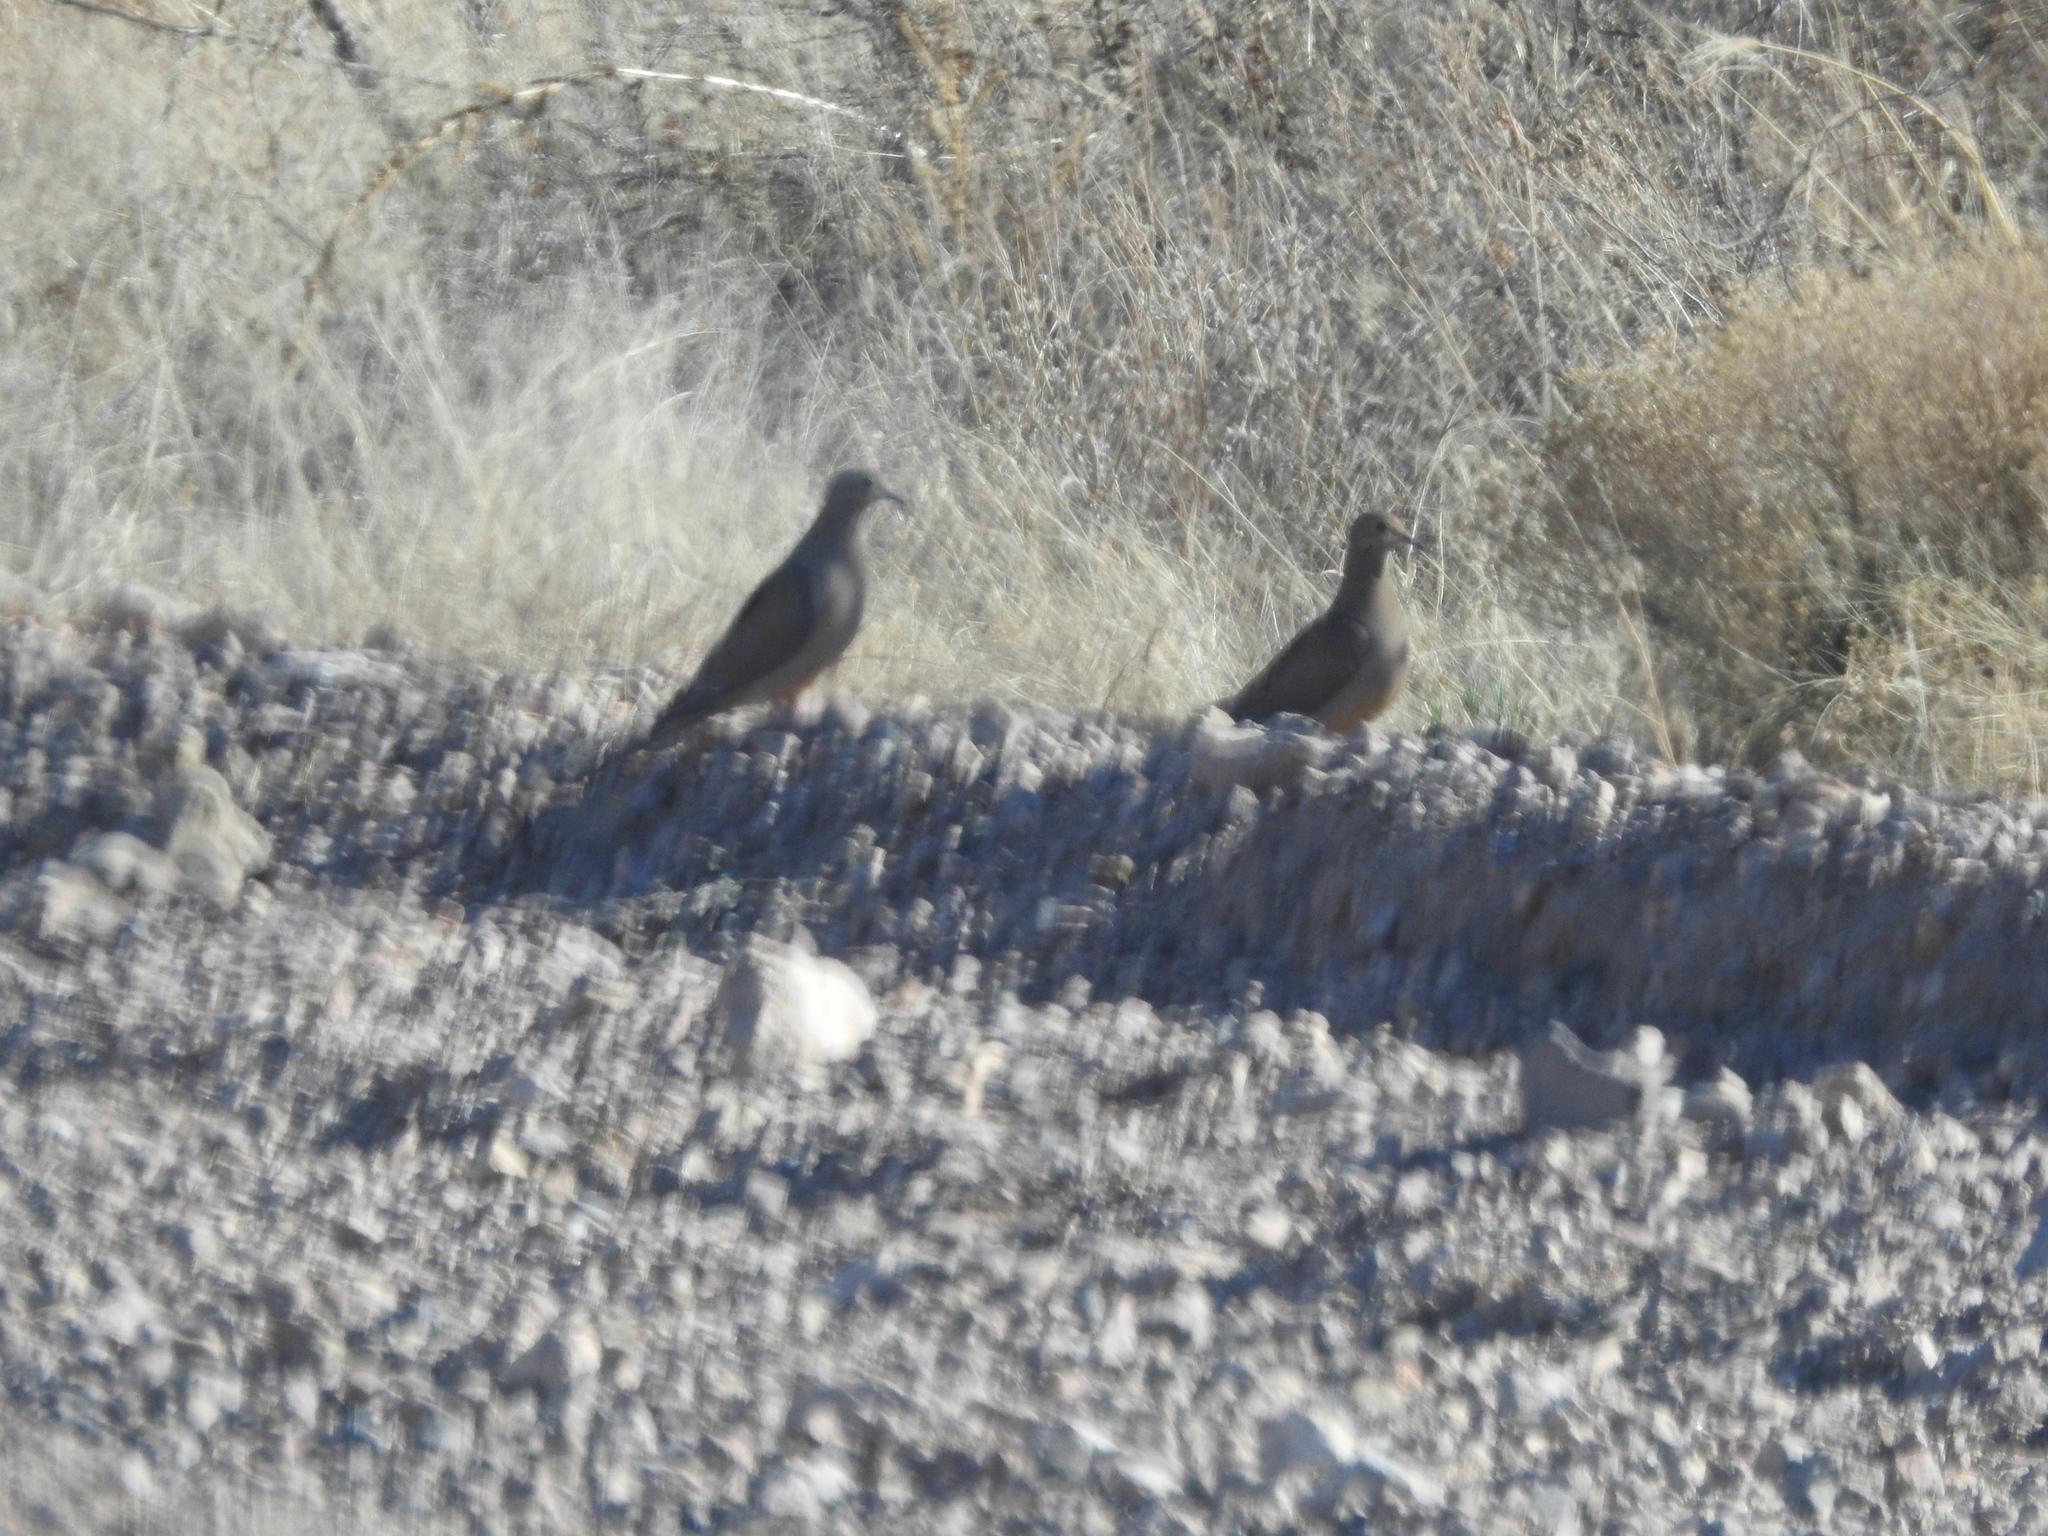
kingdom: Animalia
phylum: Chordata
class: Aves
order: Columbiformes
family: Columbidae
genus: Zenaida
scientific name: Zenaida macroura
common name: Mourning dove
